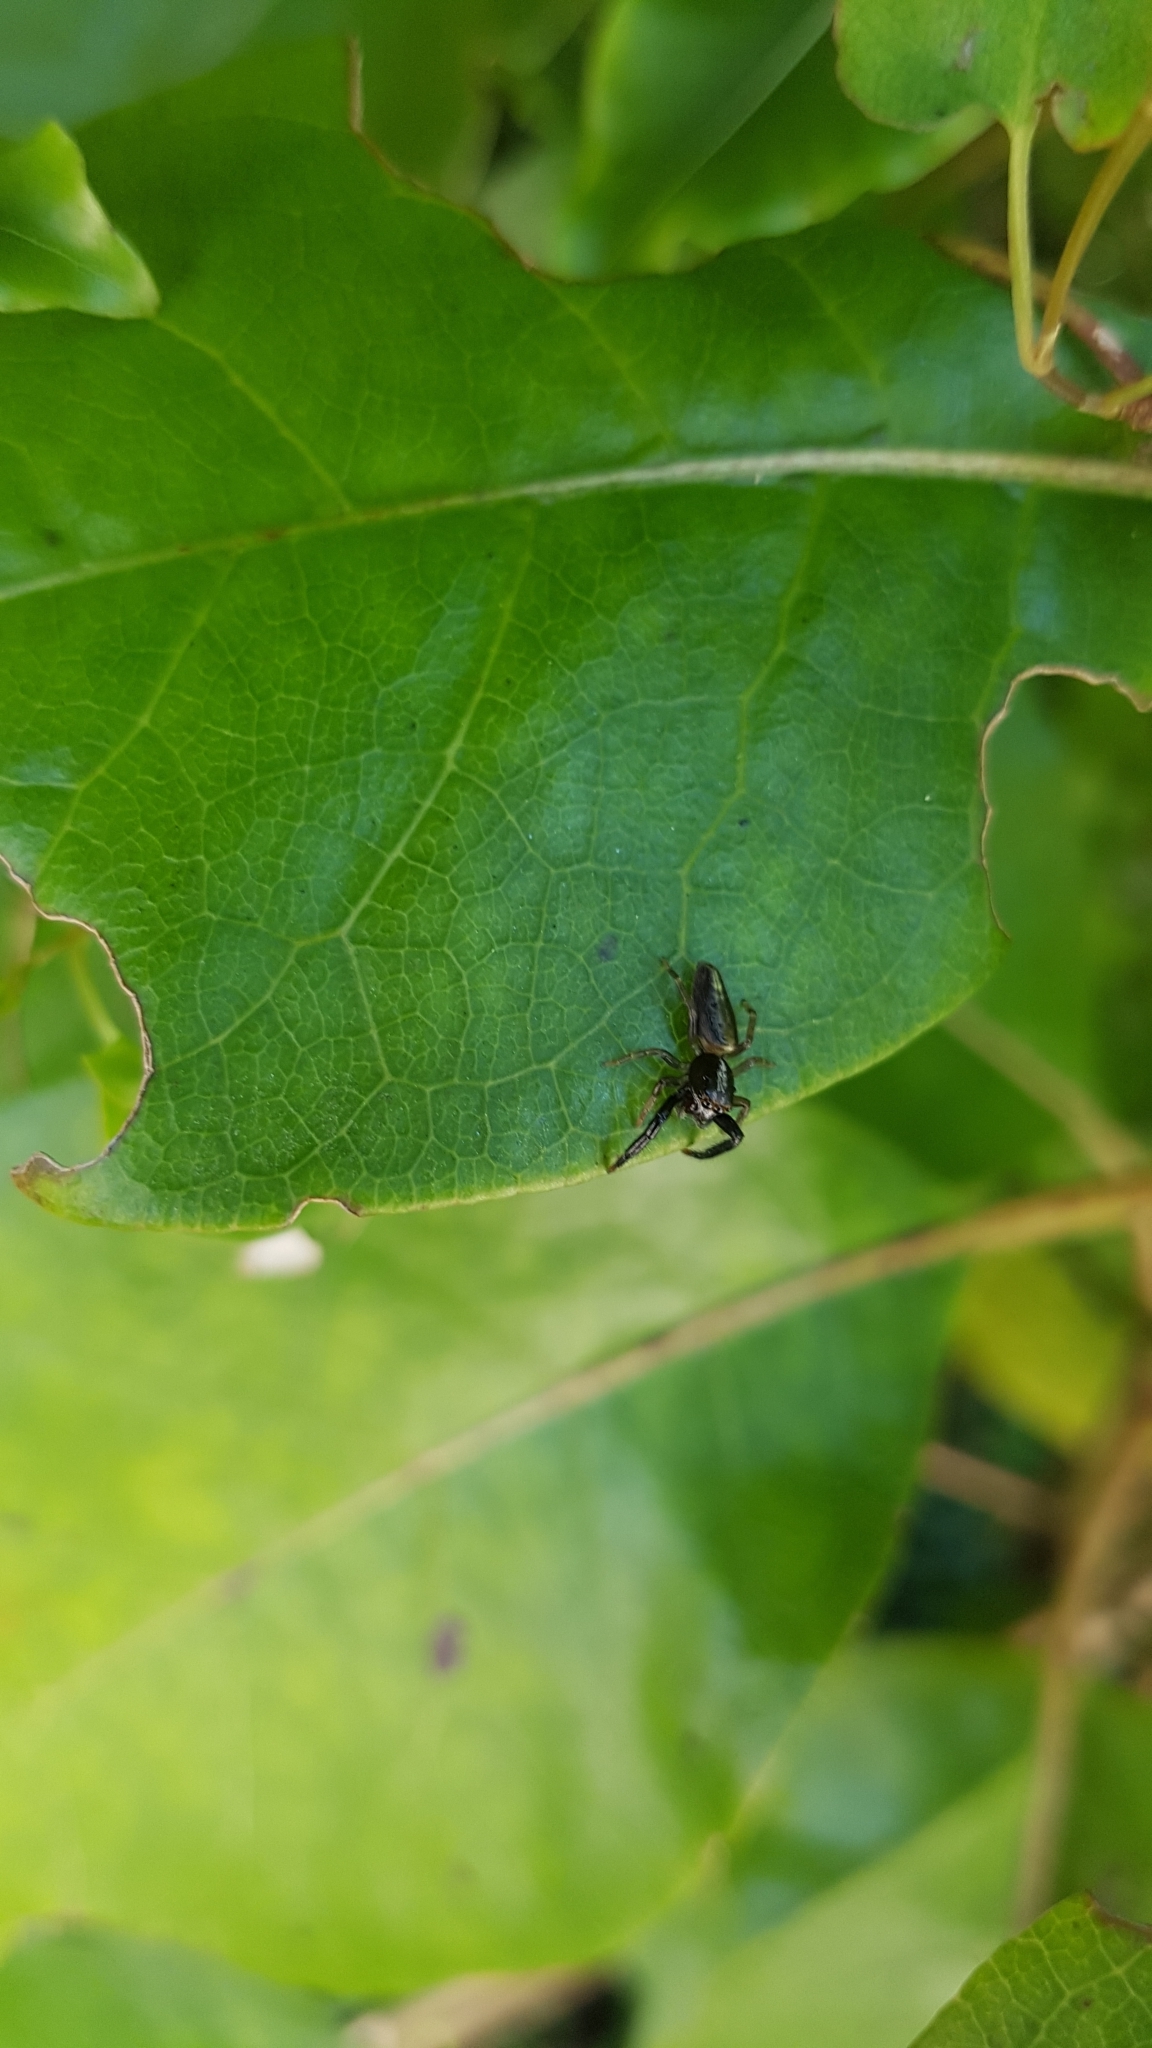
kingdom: Animalia
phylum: Arthropoda
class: Arachnida
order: Araneae
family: Salticidae
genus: Trite
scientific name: Trite planiceps
